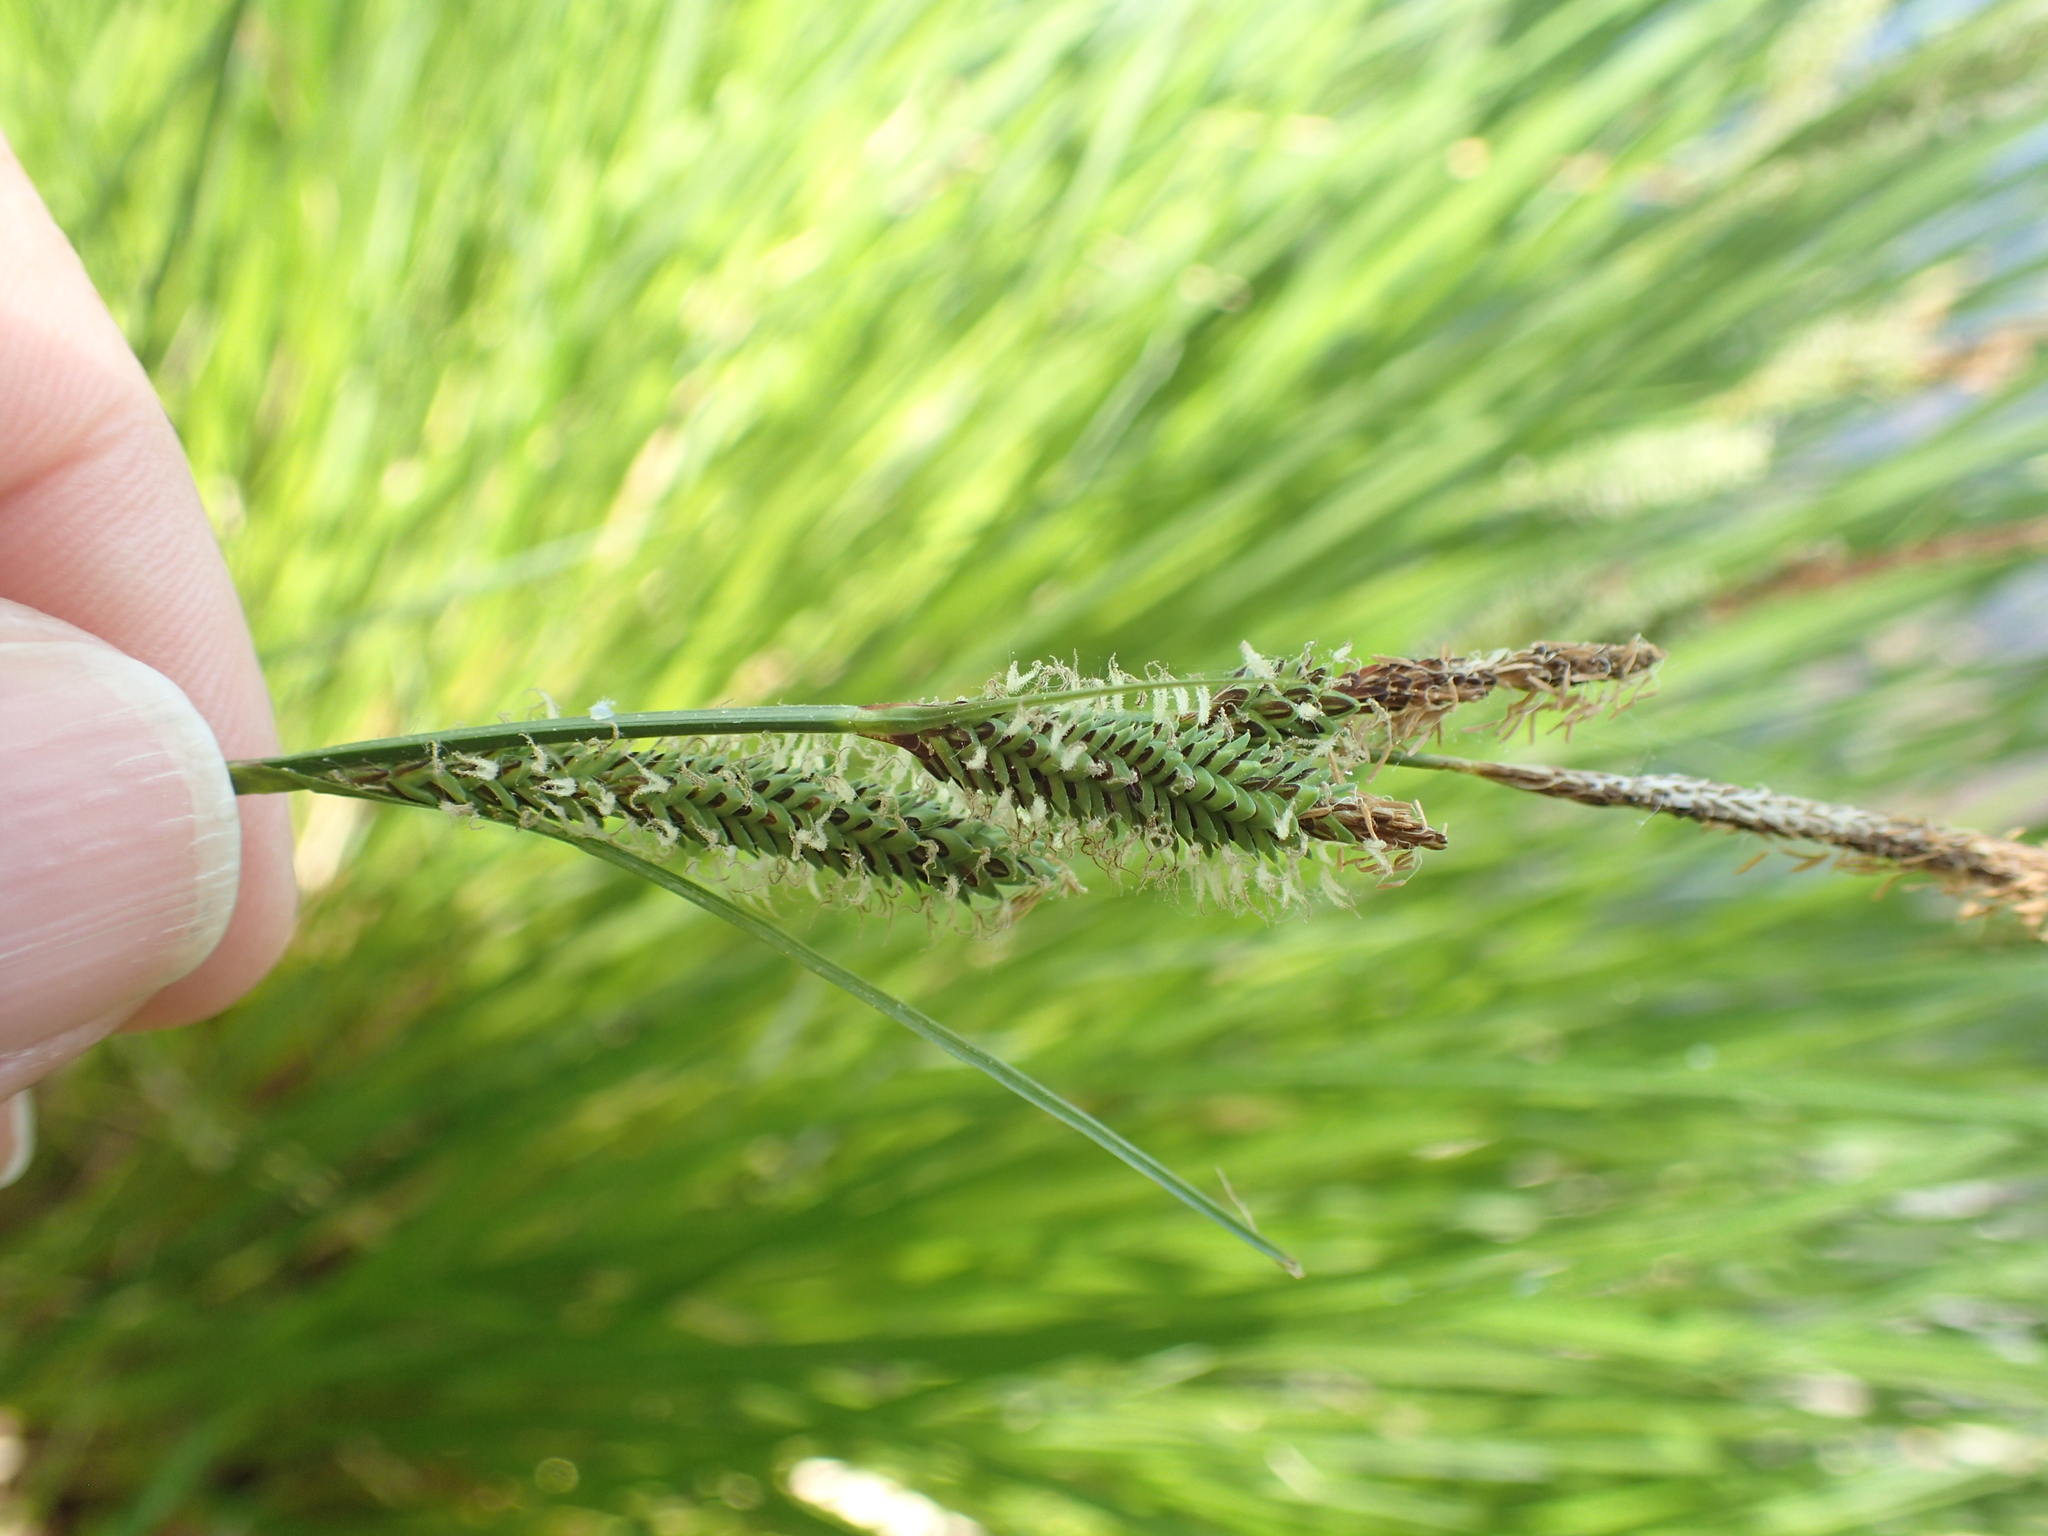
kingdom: Plantae
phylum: Tracheophyta
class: Liliopsida
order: Poales
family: Cyperaceae
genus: Carex
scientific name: Carex stricta
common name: Hummock sedge
